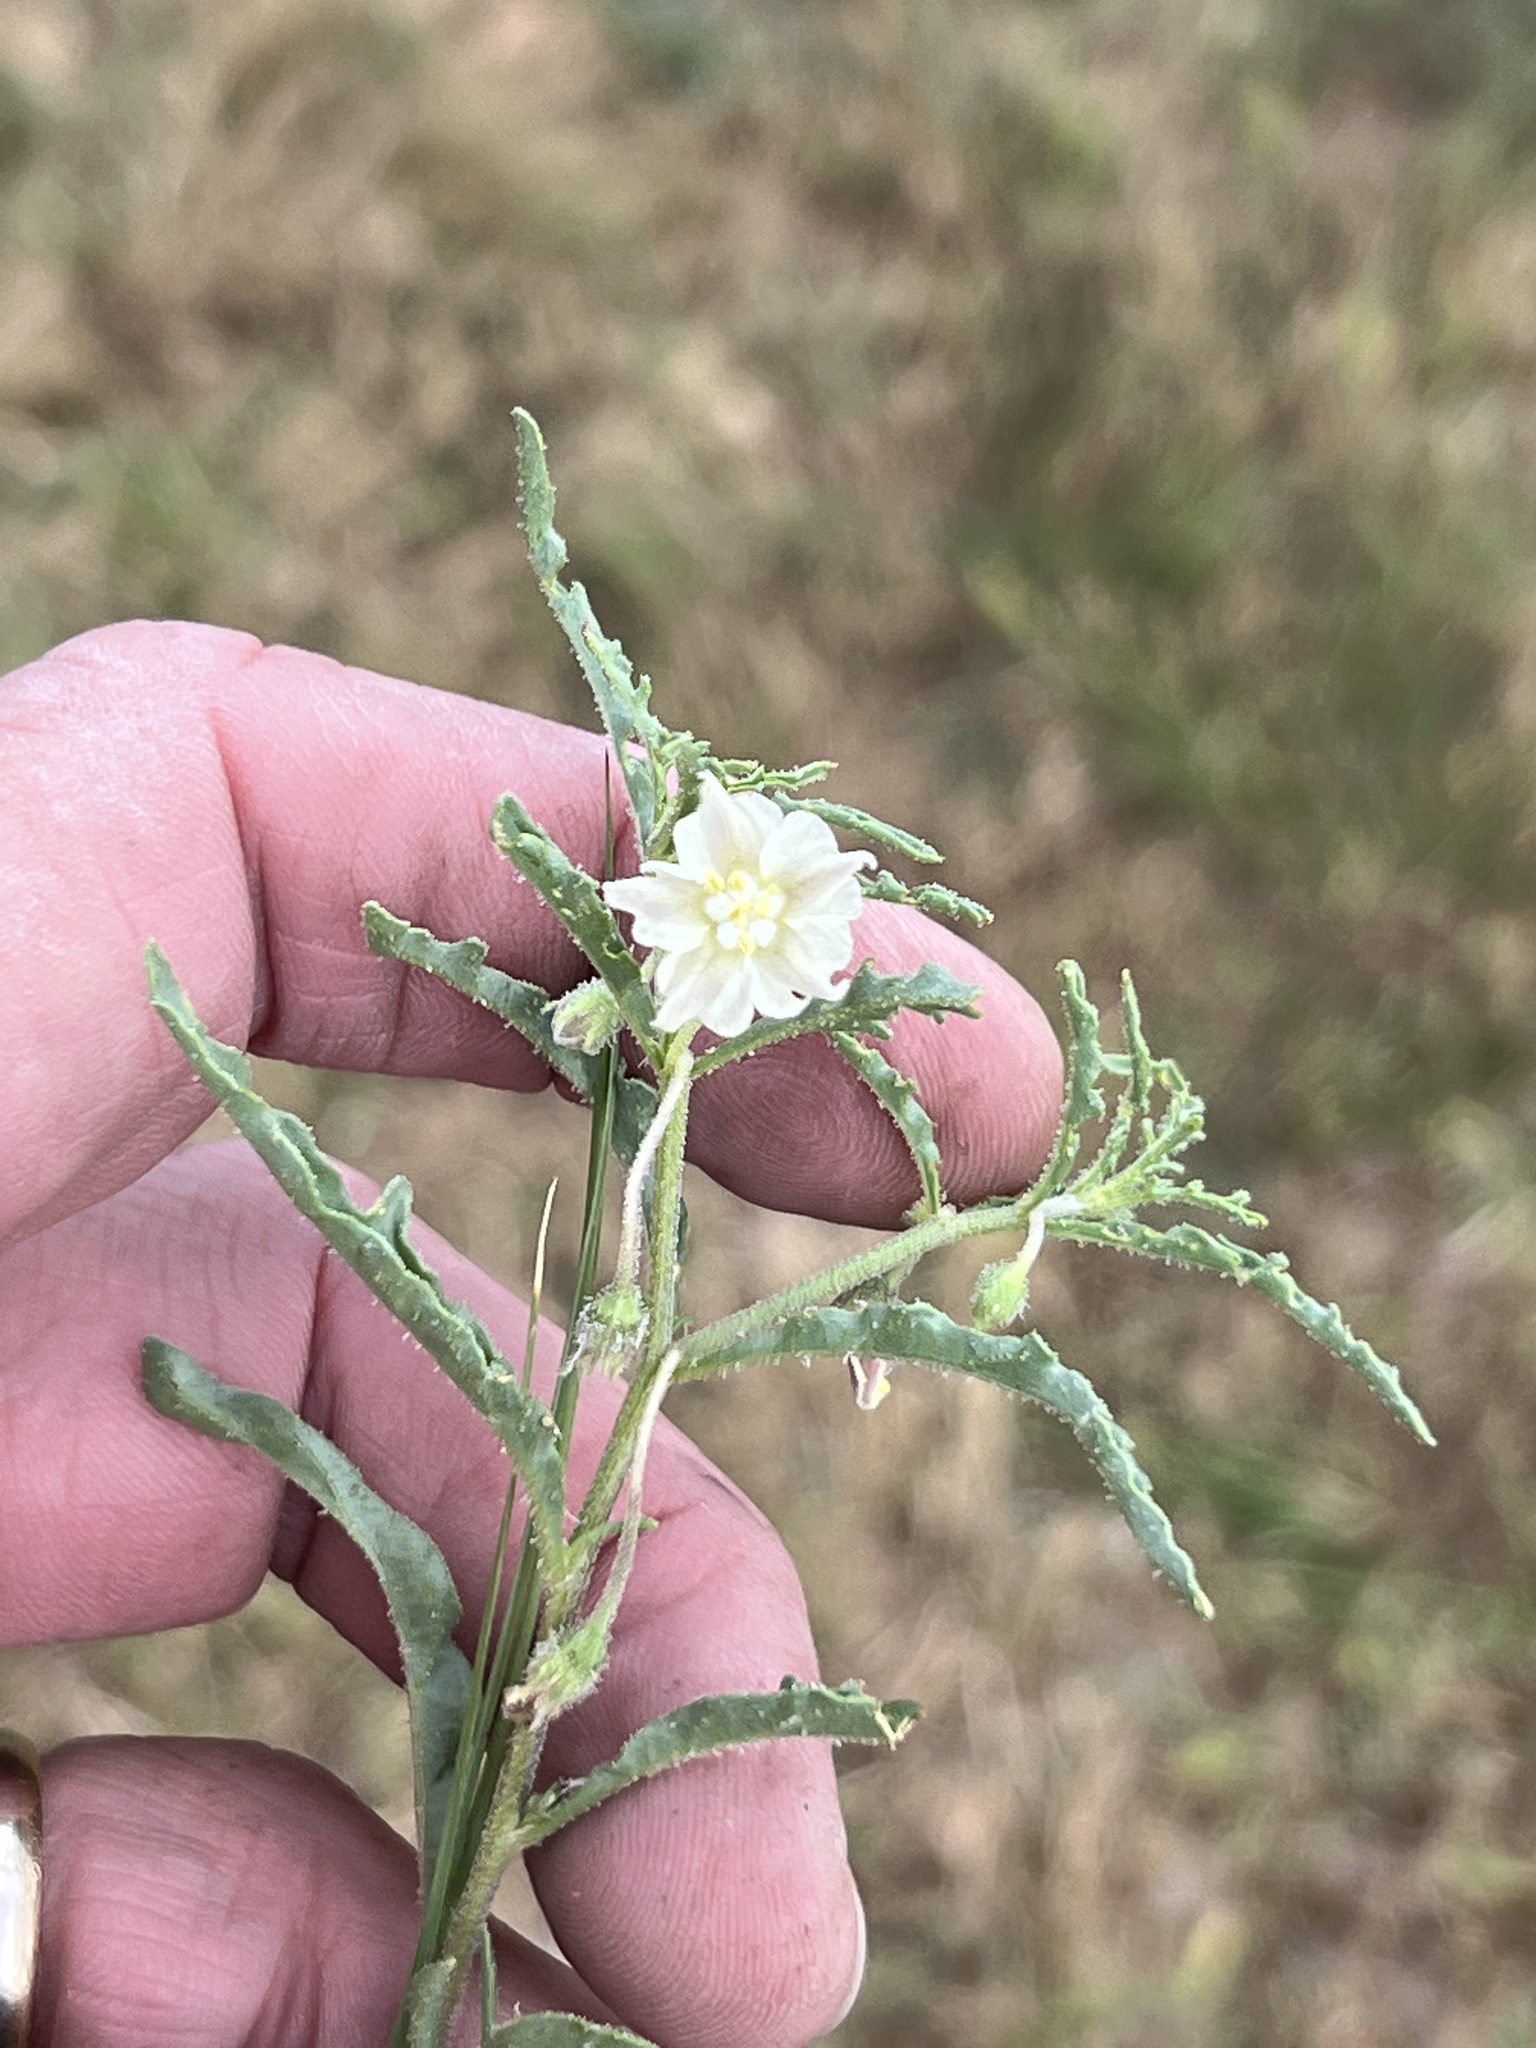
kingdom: Plantae
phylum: Tracheophyta
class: Magnoliopsida
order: Solanales
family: Solanaceae
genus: Chamaesaracha
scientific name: Chamaesaracha coronopus
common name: Smooth chamaesaracha
